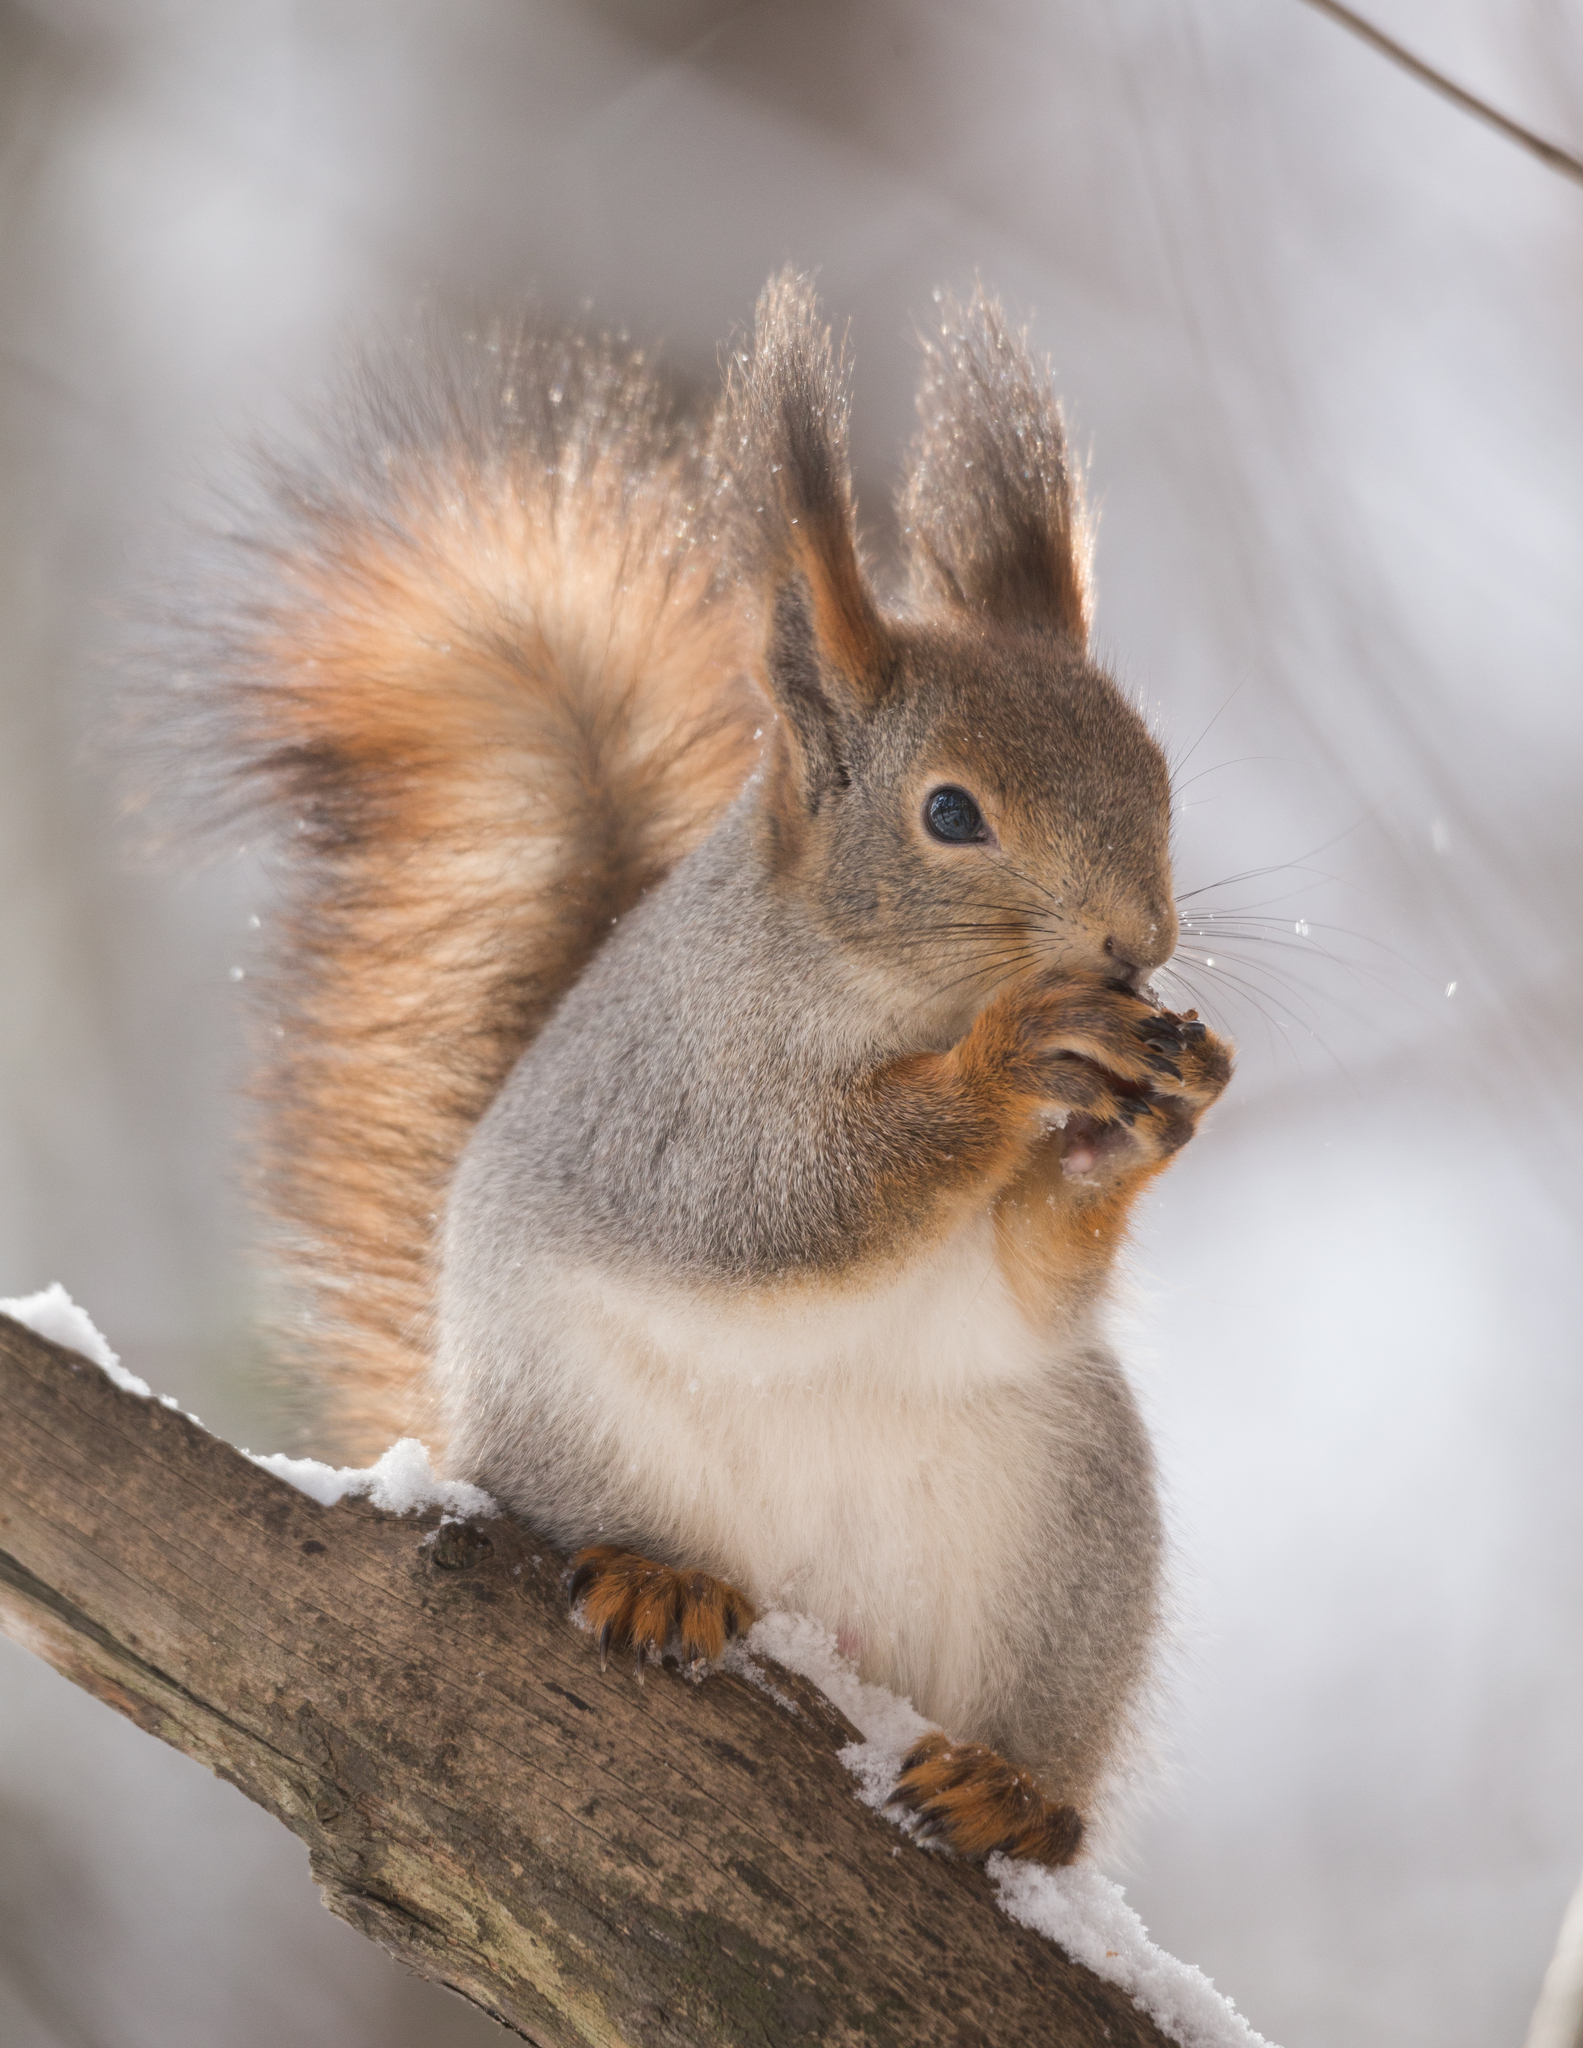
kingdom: Animalia
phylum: Chordata
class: Mammalia
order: Rodentia
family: Sciuridae
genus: Sciurus
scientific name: Sciurus vulgaris
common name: Eurasian red squirrel
